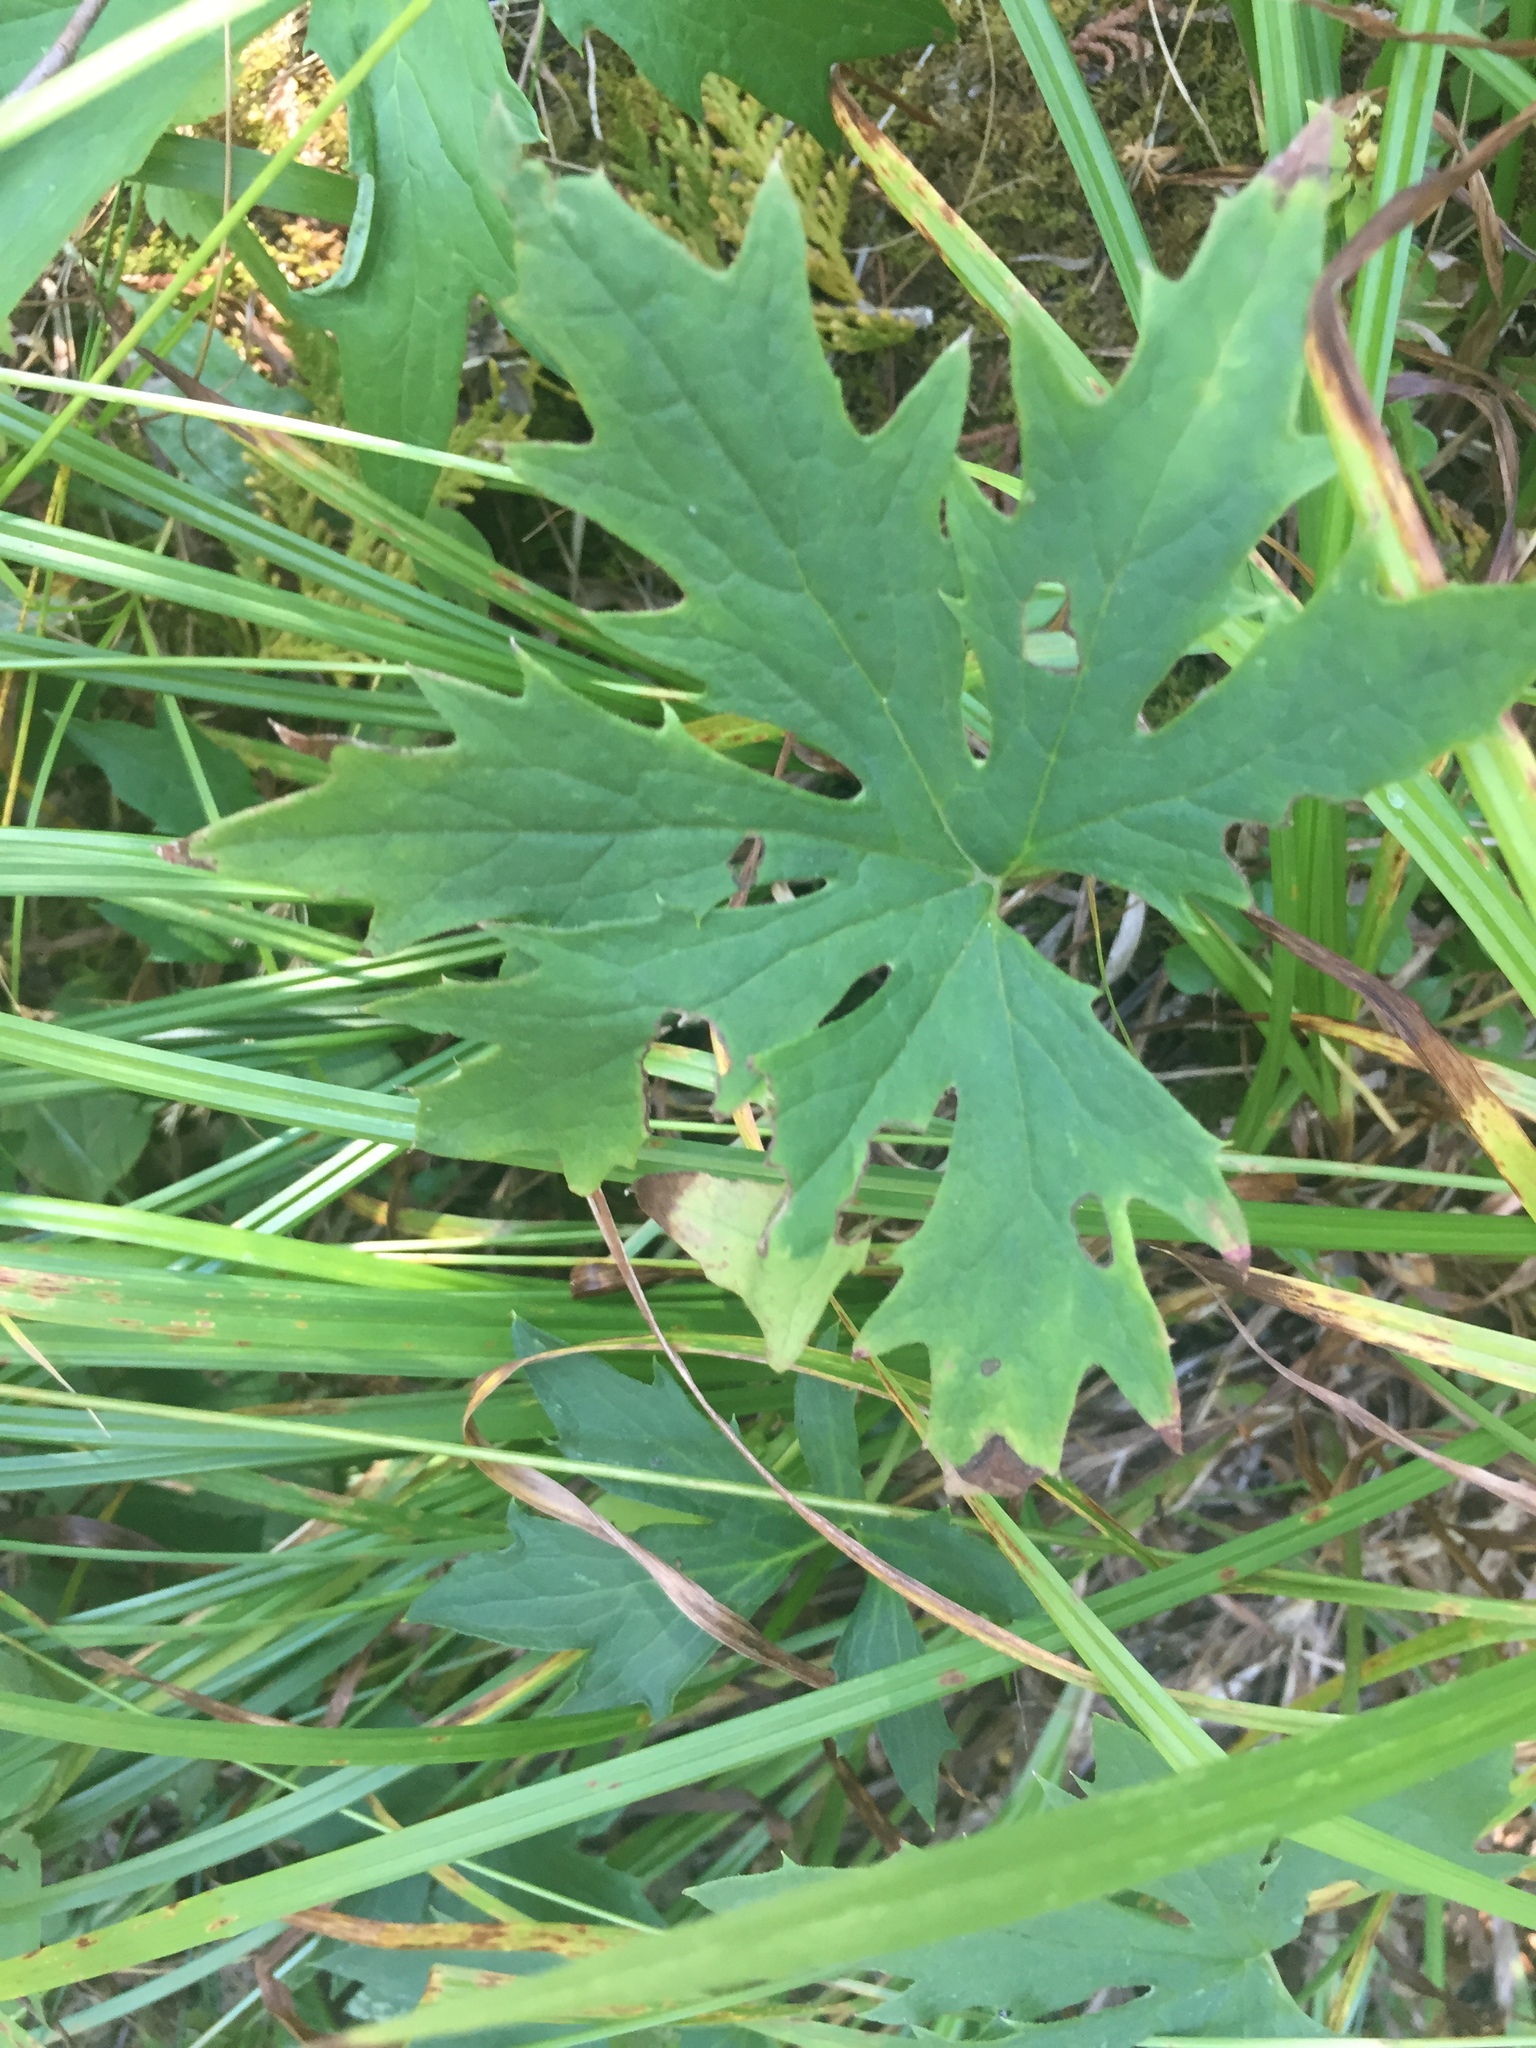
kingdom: Plantae
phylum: Tracheophyta
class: Magnoliopsida
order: Asterales
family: Asteraceae
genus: Petasites
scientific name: Petasites frigidus
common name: Arctic butterbur
